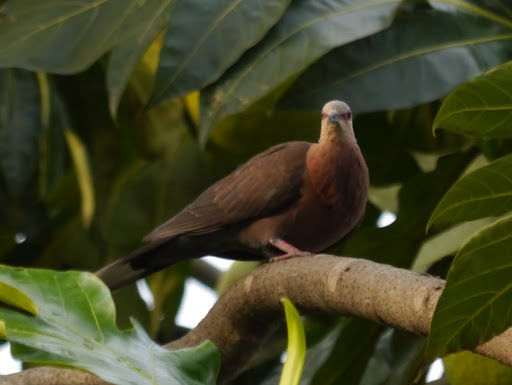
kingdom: Animalia
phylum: Chordata
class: Aves
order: Columbiformes
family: Columbidae
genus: Streptopelia
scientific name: Streptopelia semitorquata
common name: Red-eyed dove
